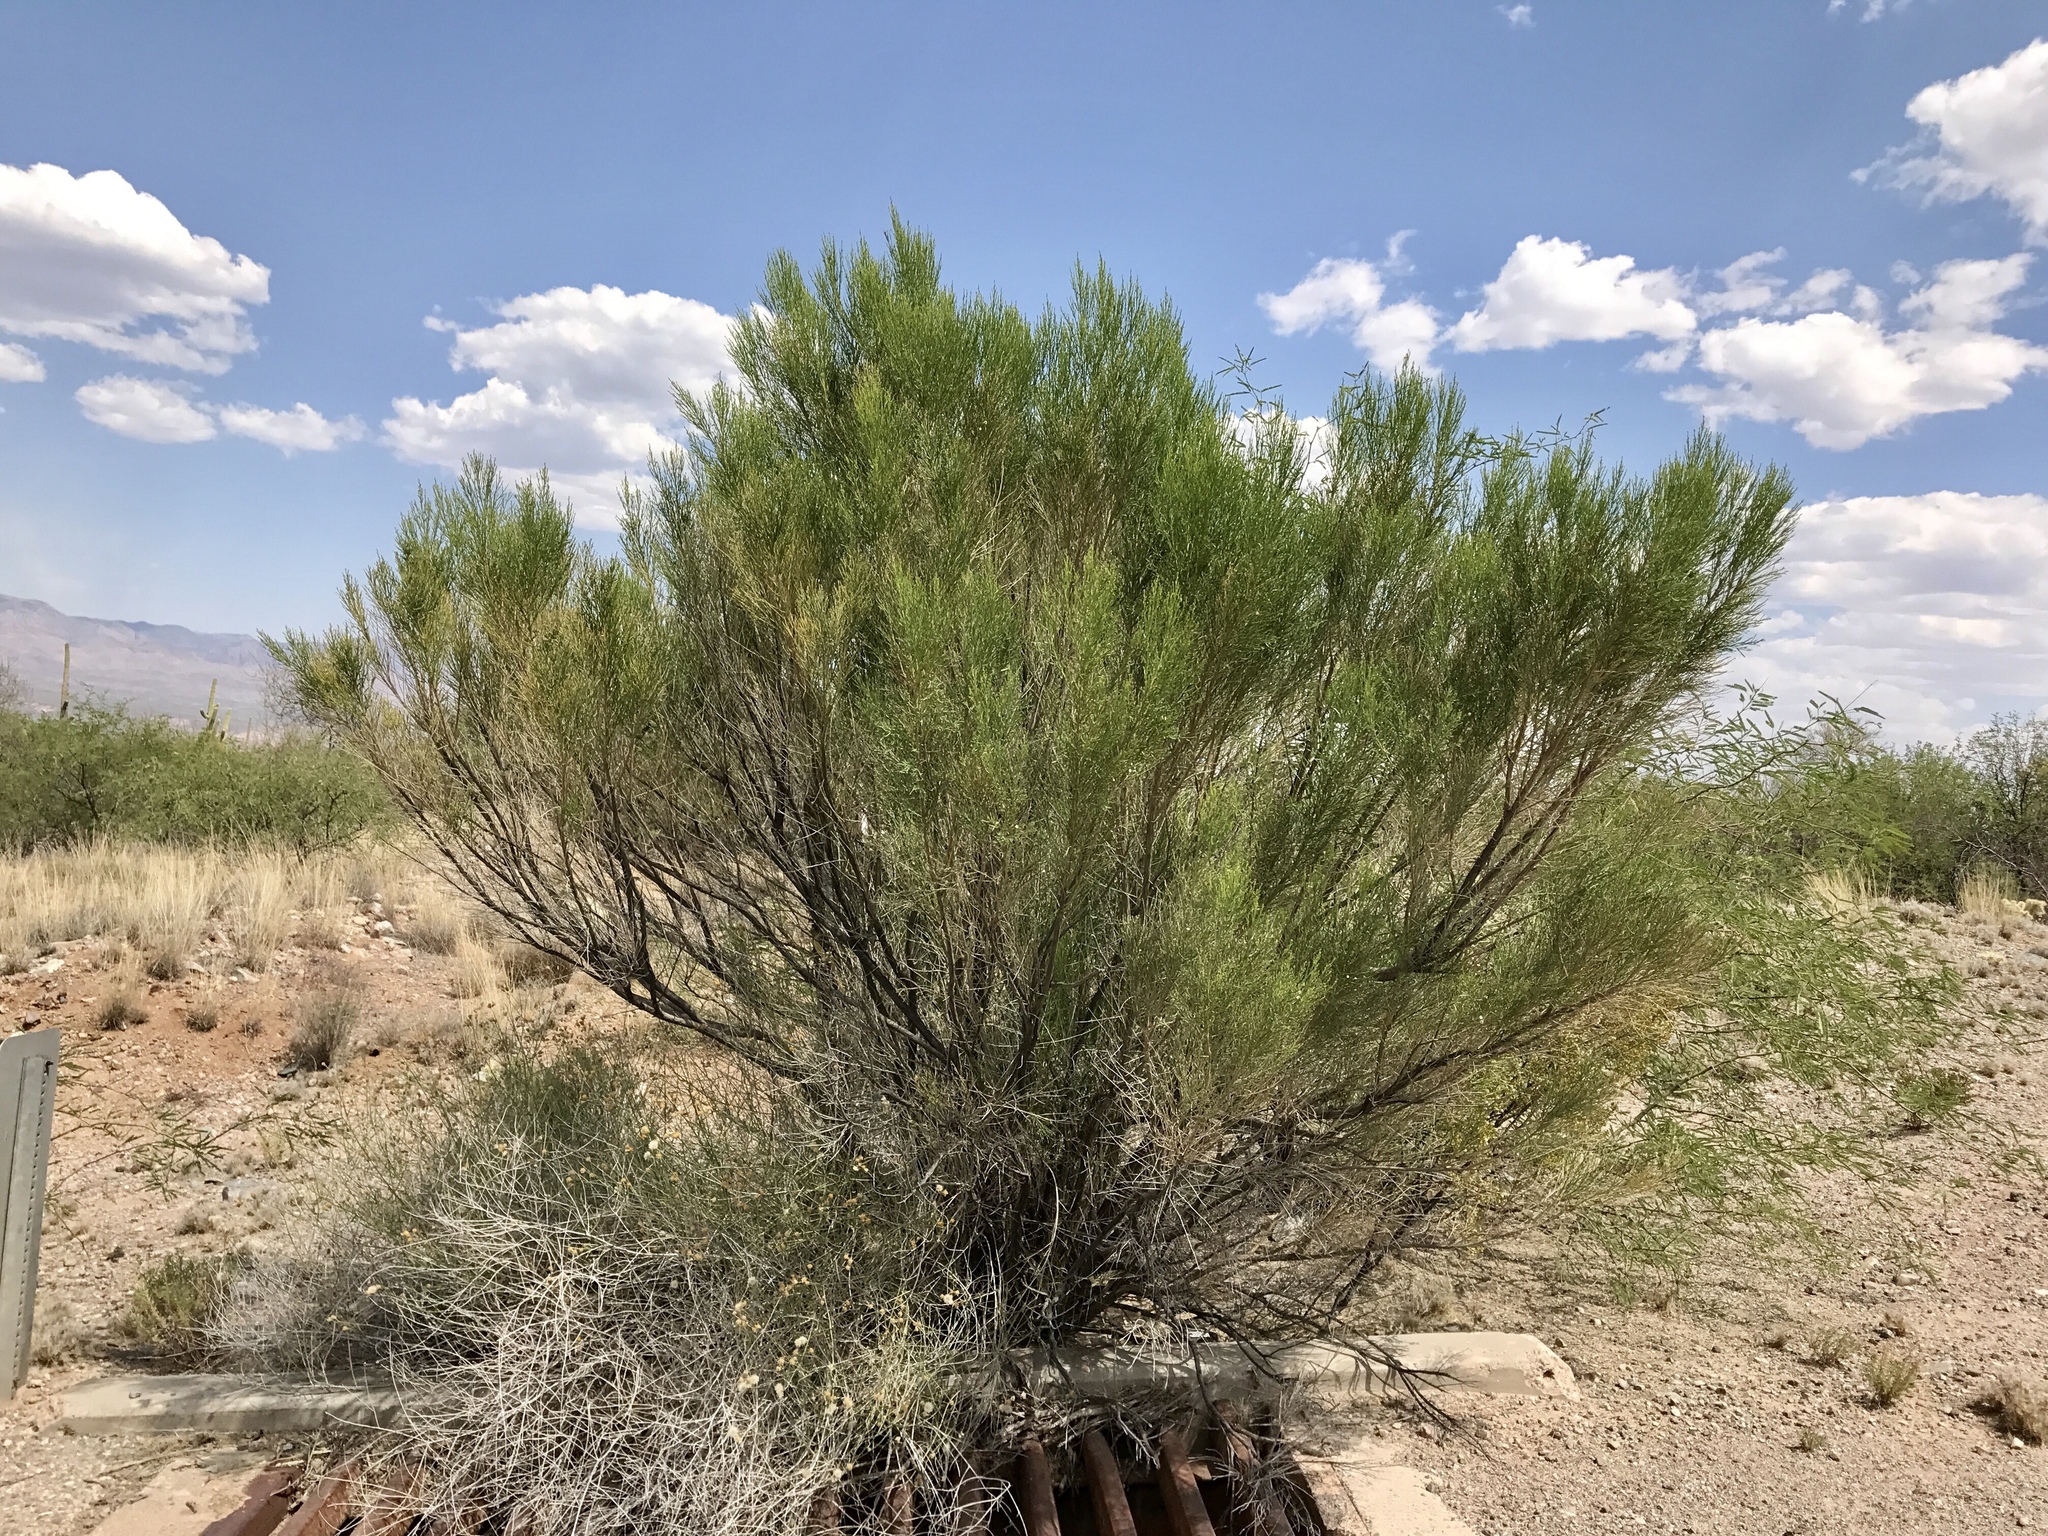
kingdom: Plantae
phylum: Tracheophyta
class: Magnoliopsida
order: Asterales
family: Asteraceae
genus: Baccharis
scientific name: Baccharis sarothroides
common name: Desert-broom
